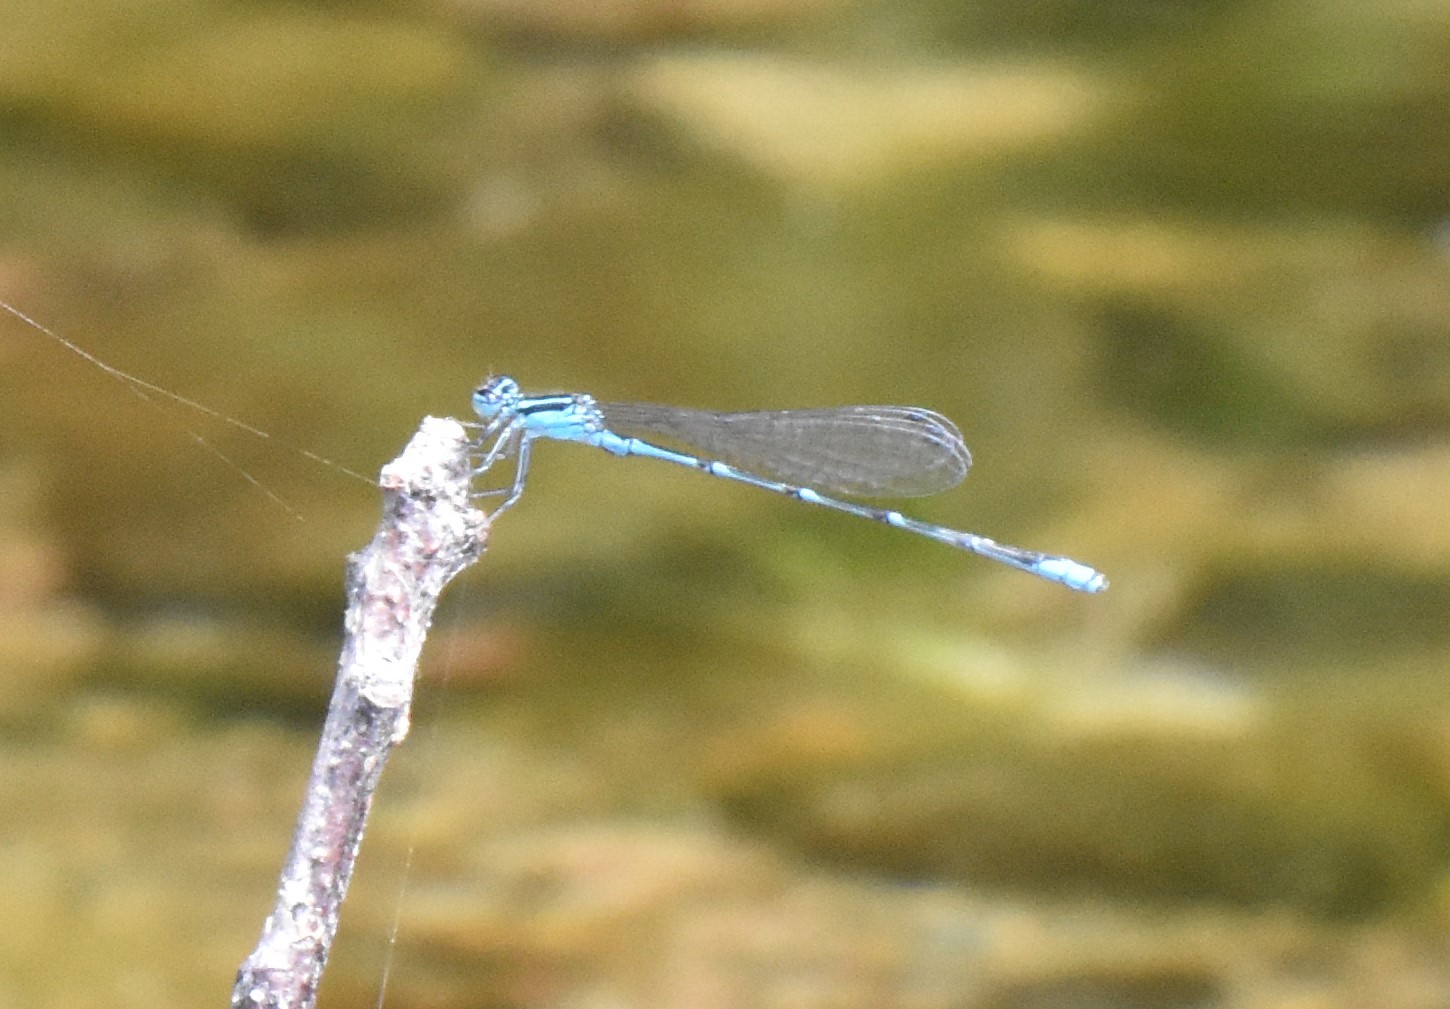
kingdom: Animalia
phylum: Arthropoda
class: Insecta
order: Odonata
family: Coenagrionidae
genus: Enallagma
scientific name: Enallagma traviatum
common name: Slender bluet
